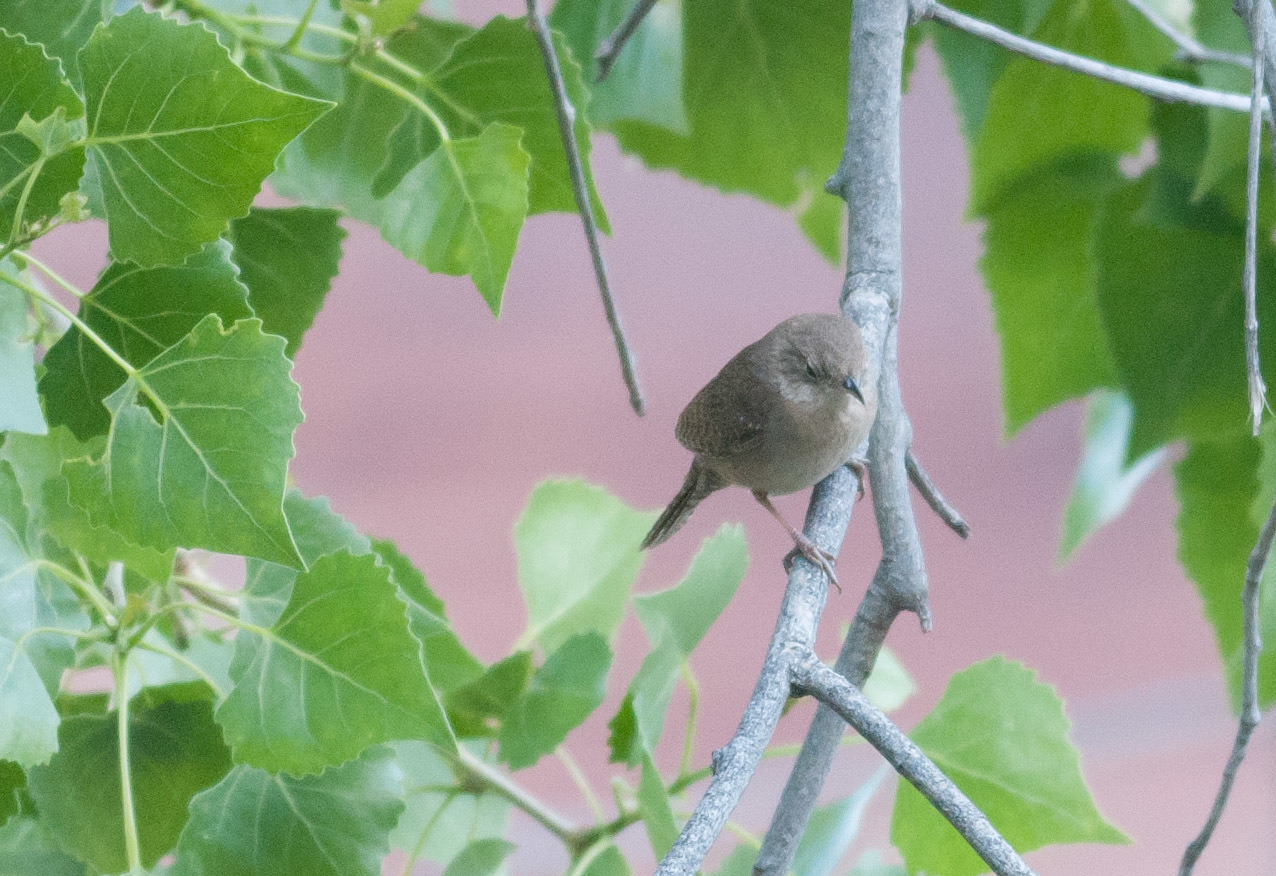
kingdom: Animalia
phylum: Chordata
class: Aves
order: Passeriformes
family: Troglodytidae
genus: Troglodytes
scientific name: Troglodytes aedon
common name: House wren
